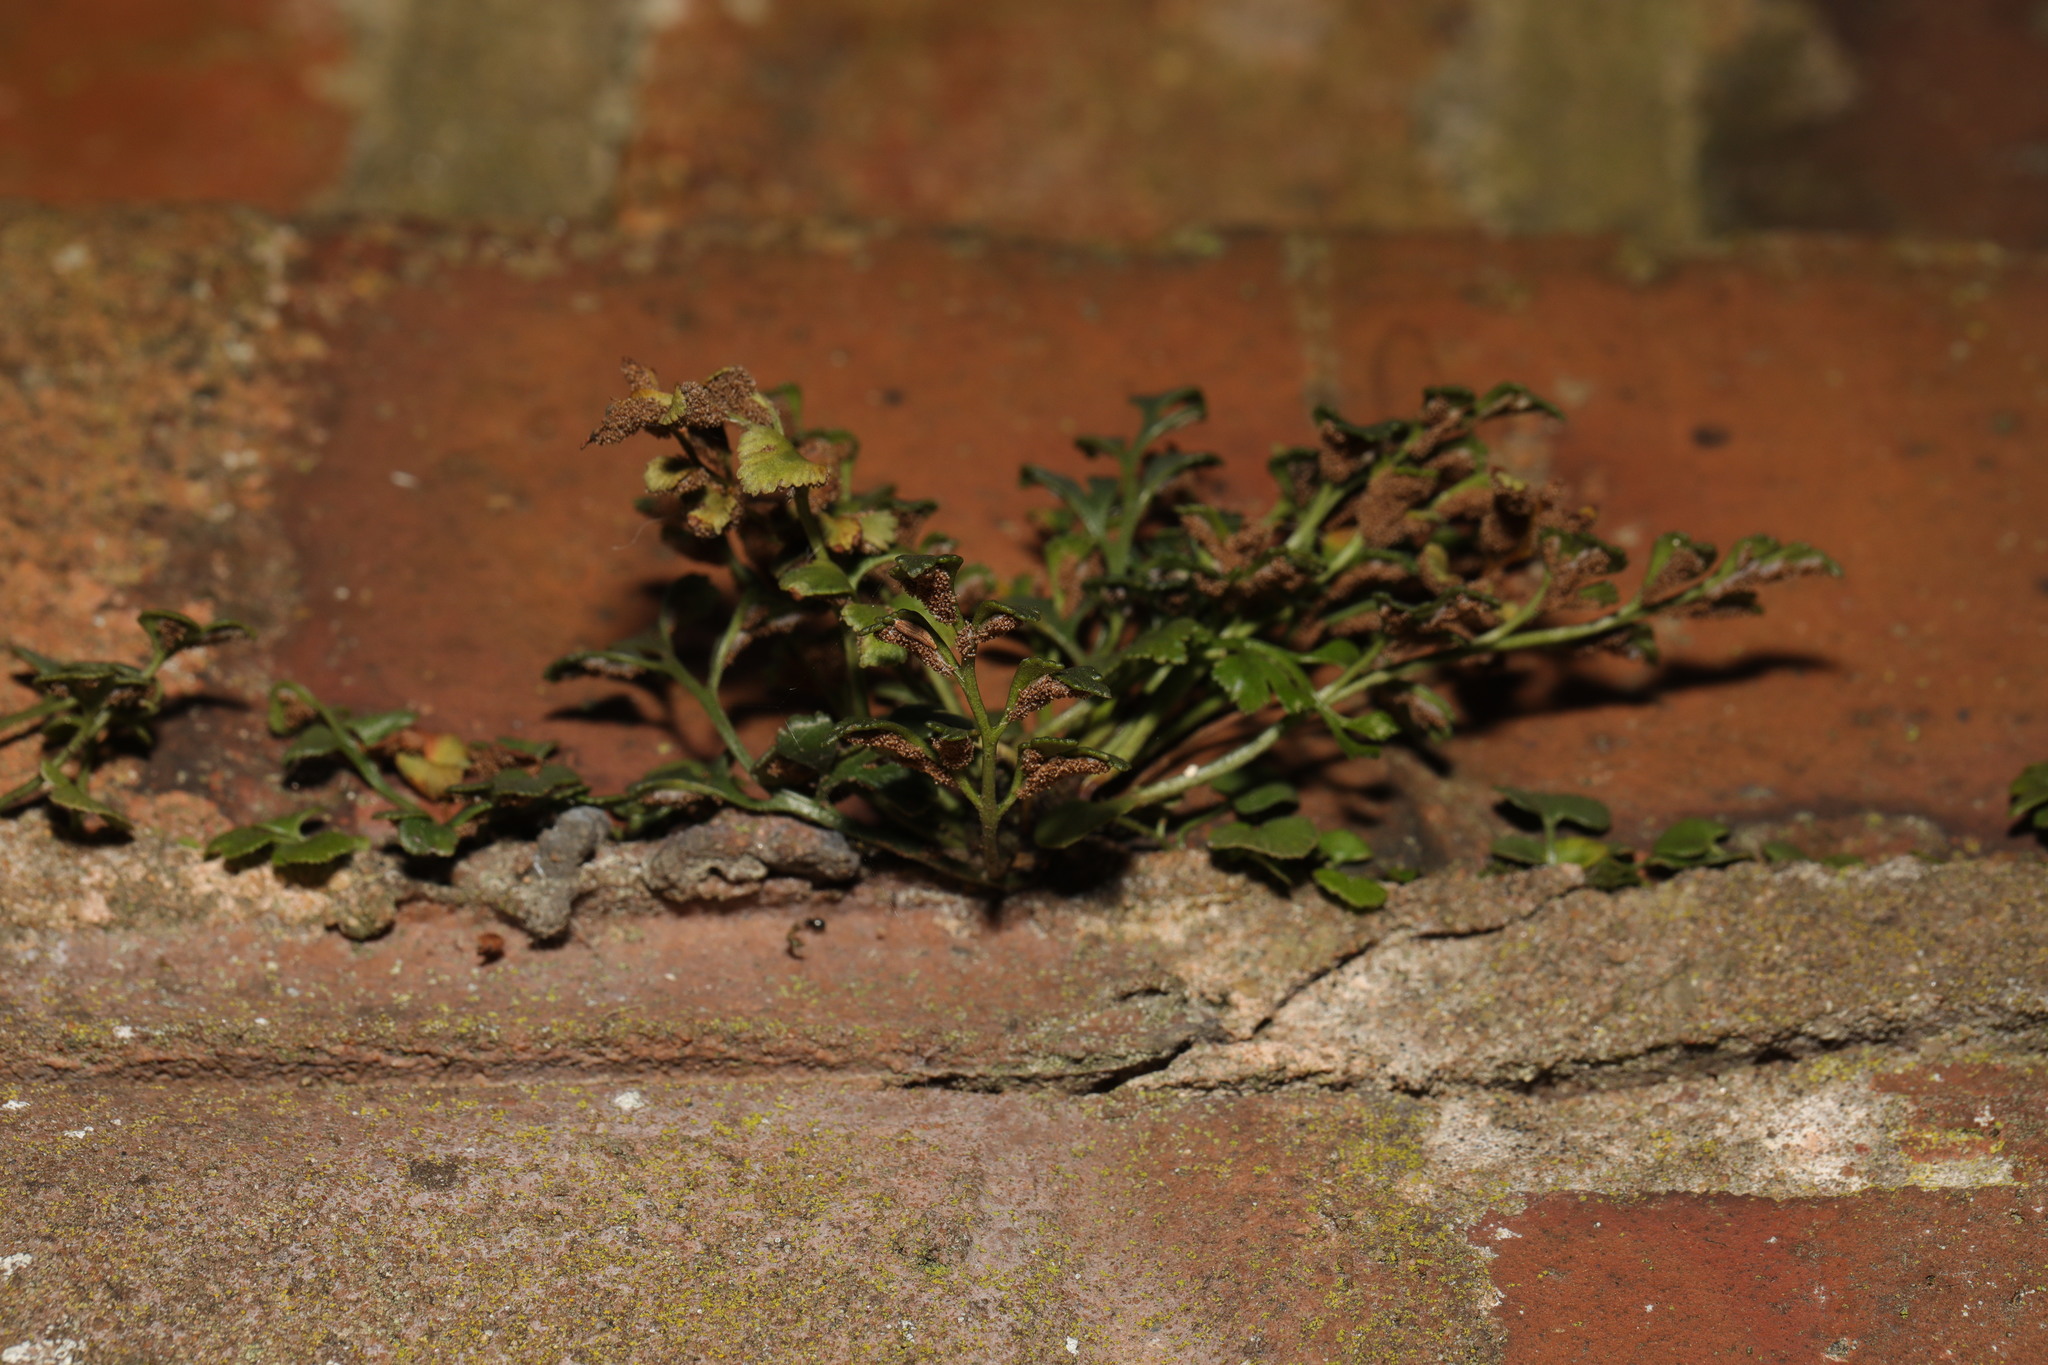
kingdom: Plantae
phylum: Tracheophyta
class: Polypodiopsida
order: Polypodiales
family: Aspleniaceae
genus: Asplenium
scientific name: Asplenium ruta-muraria
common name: Wall-rue
